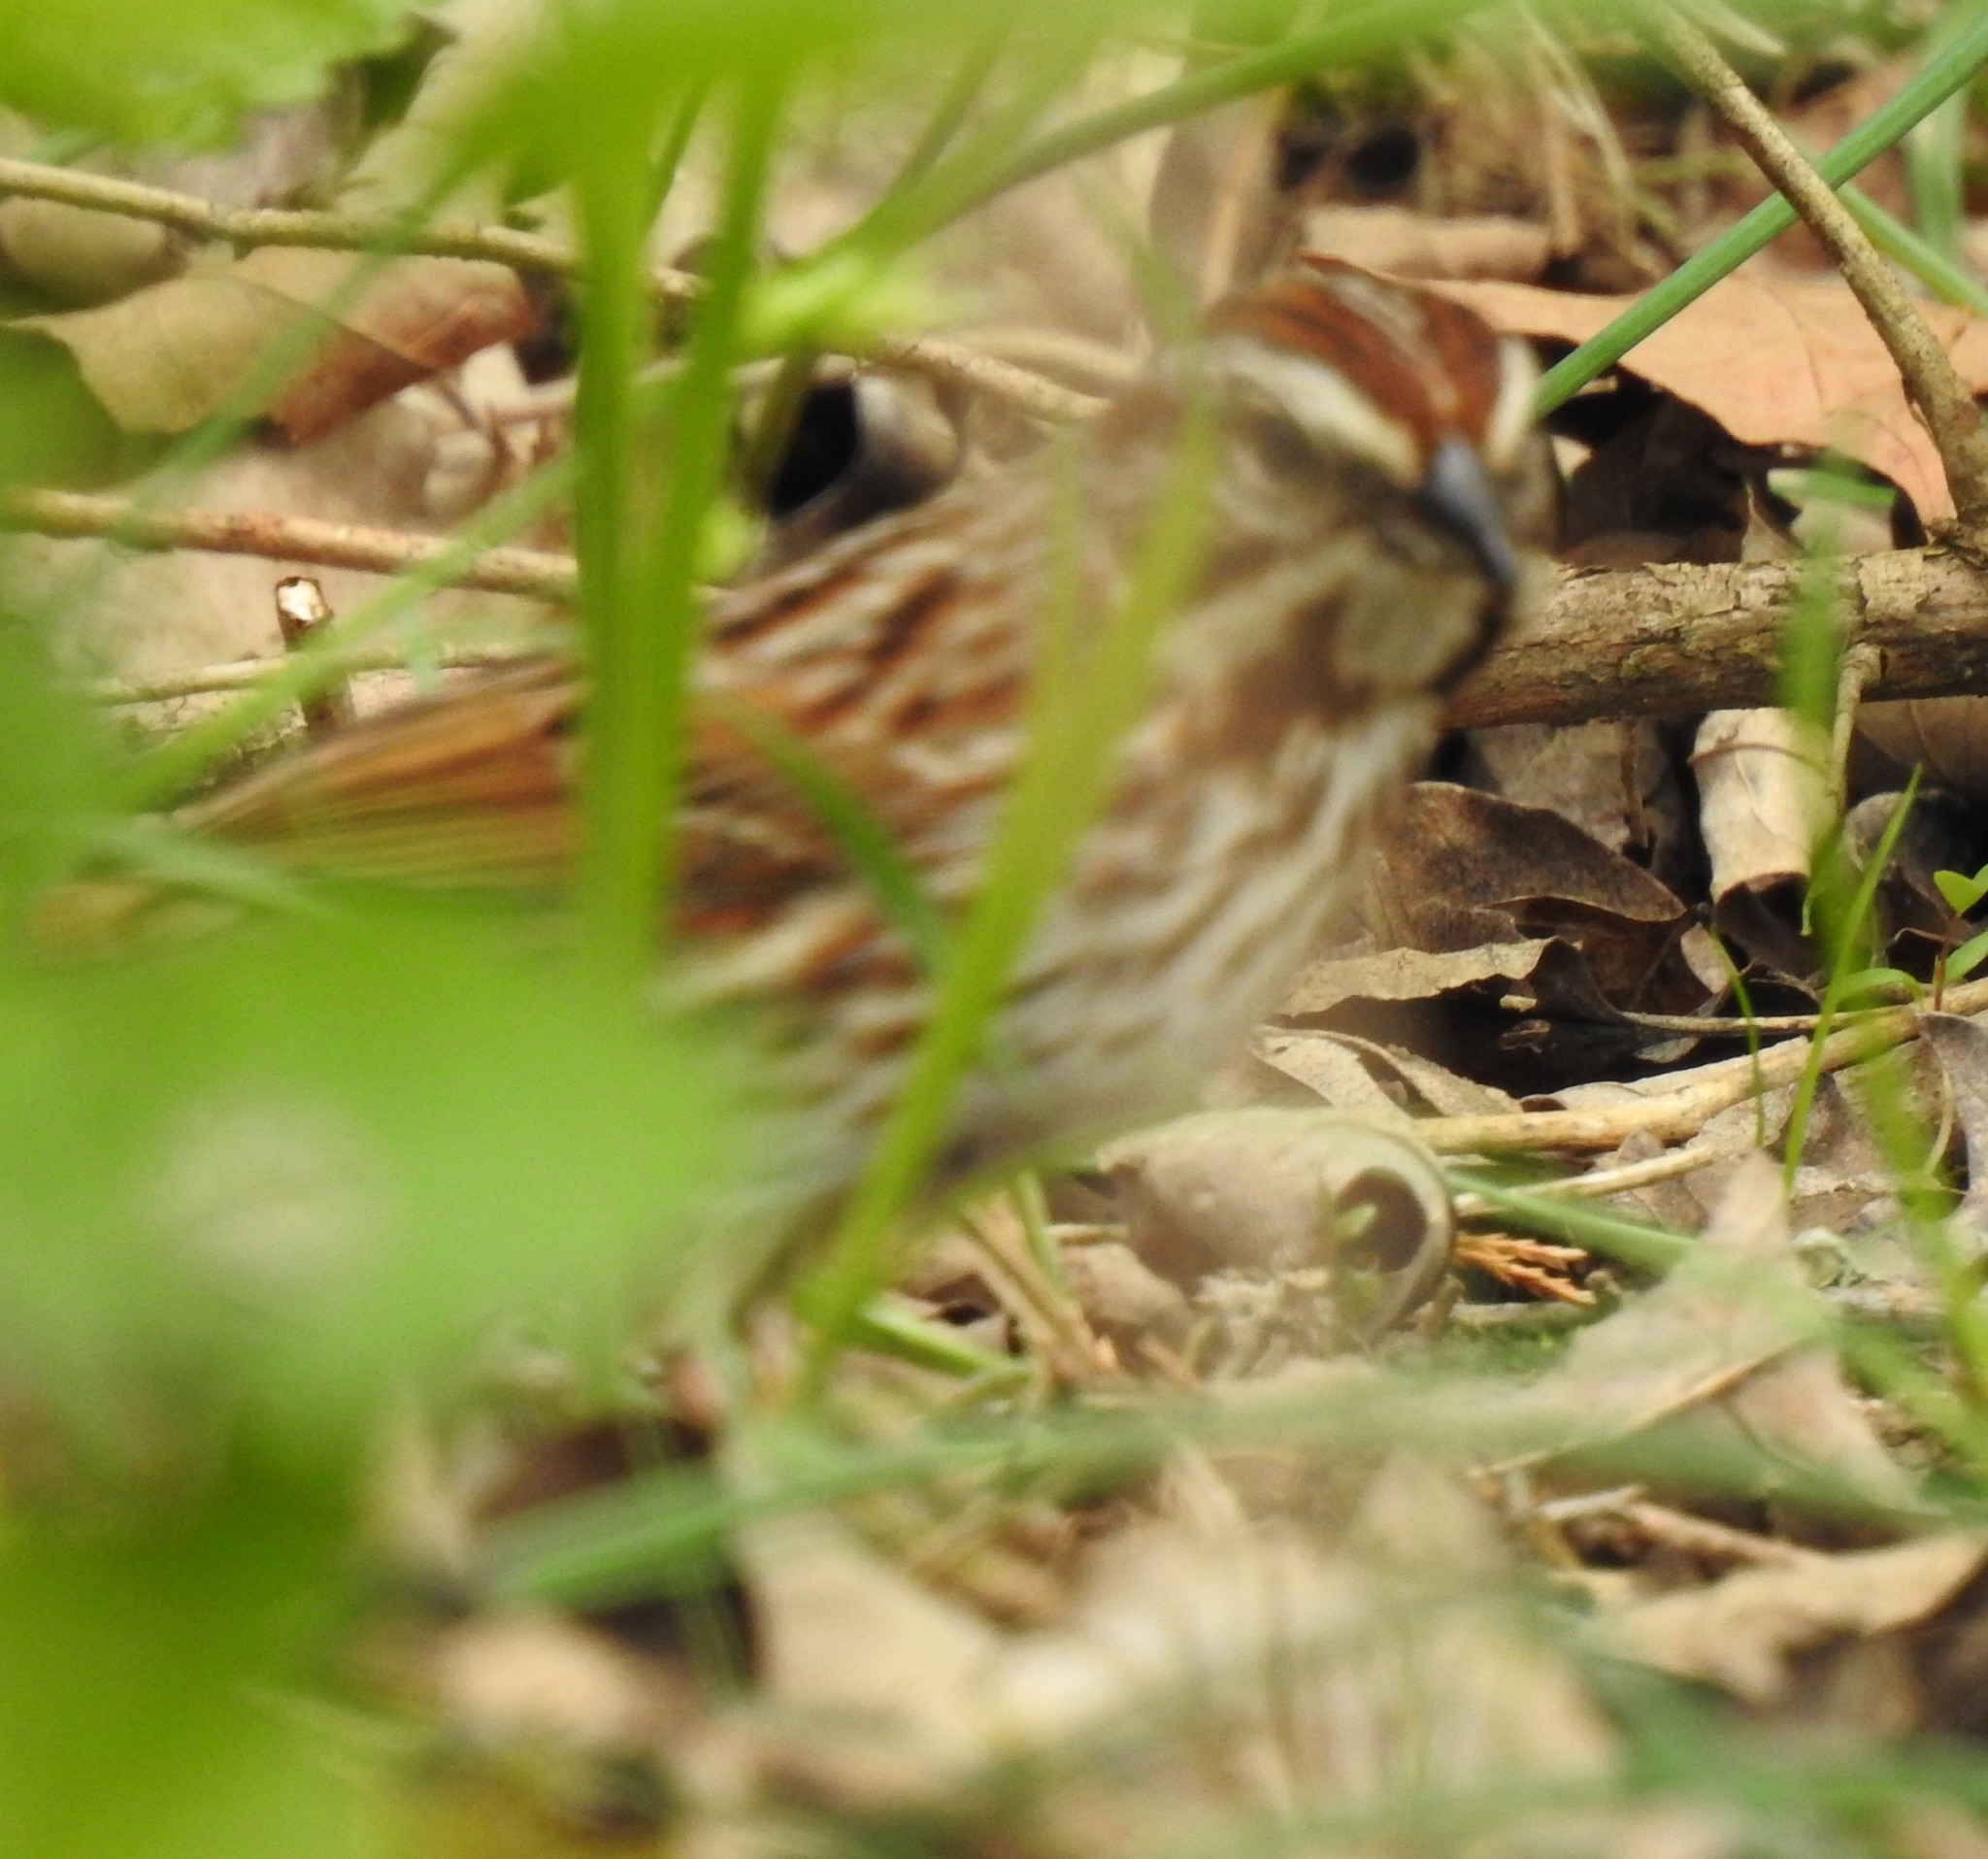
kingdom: Animalia
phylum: Chordata
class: Aves
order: Passeriformes
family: Passerellidae
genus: Melospiza
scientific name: Melospiza melodia
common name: Song sparrow
